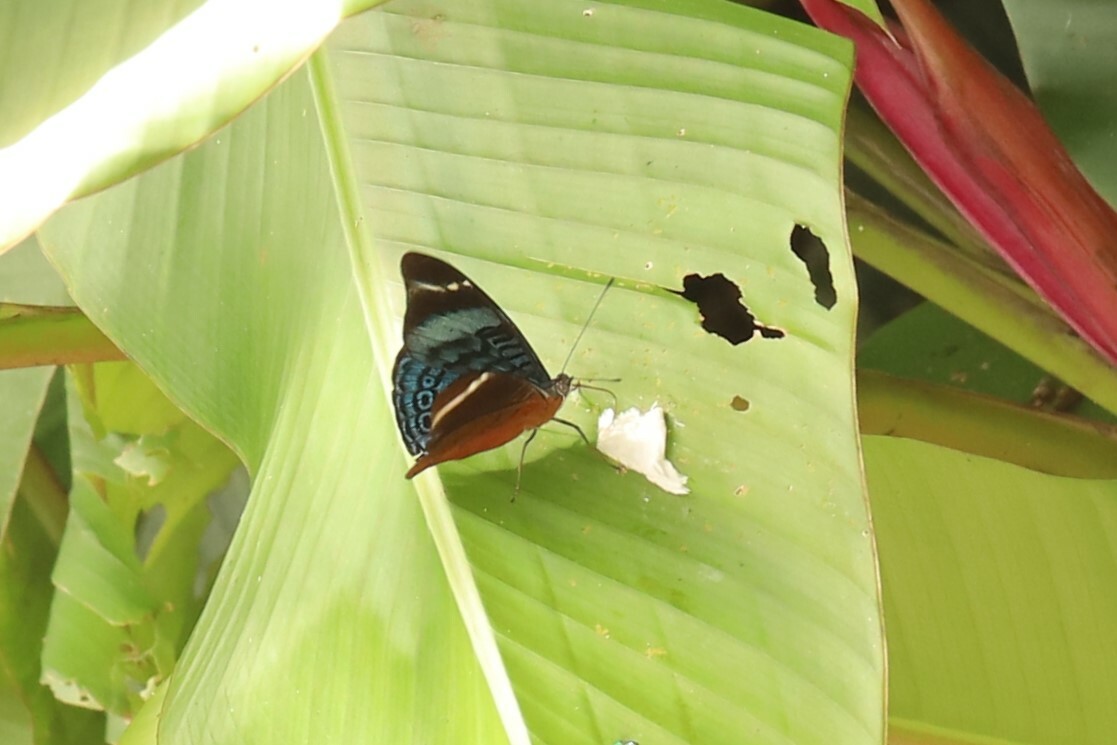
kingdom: Animalia
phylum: Arthropoda
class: Insecta
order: Lepidoptera
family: Nymphalidae
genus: Panacea
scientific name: Panacea procilla
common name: Procilla beauty
